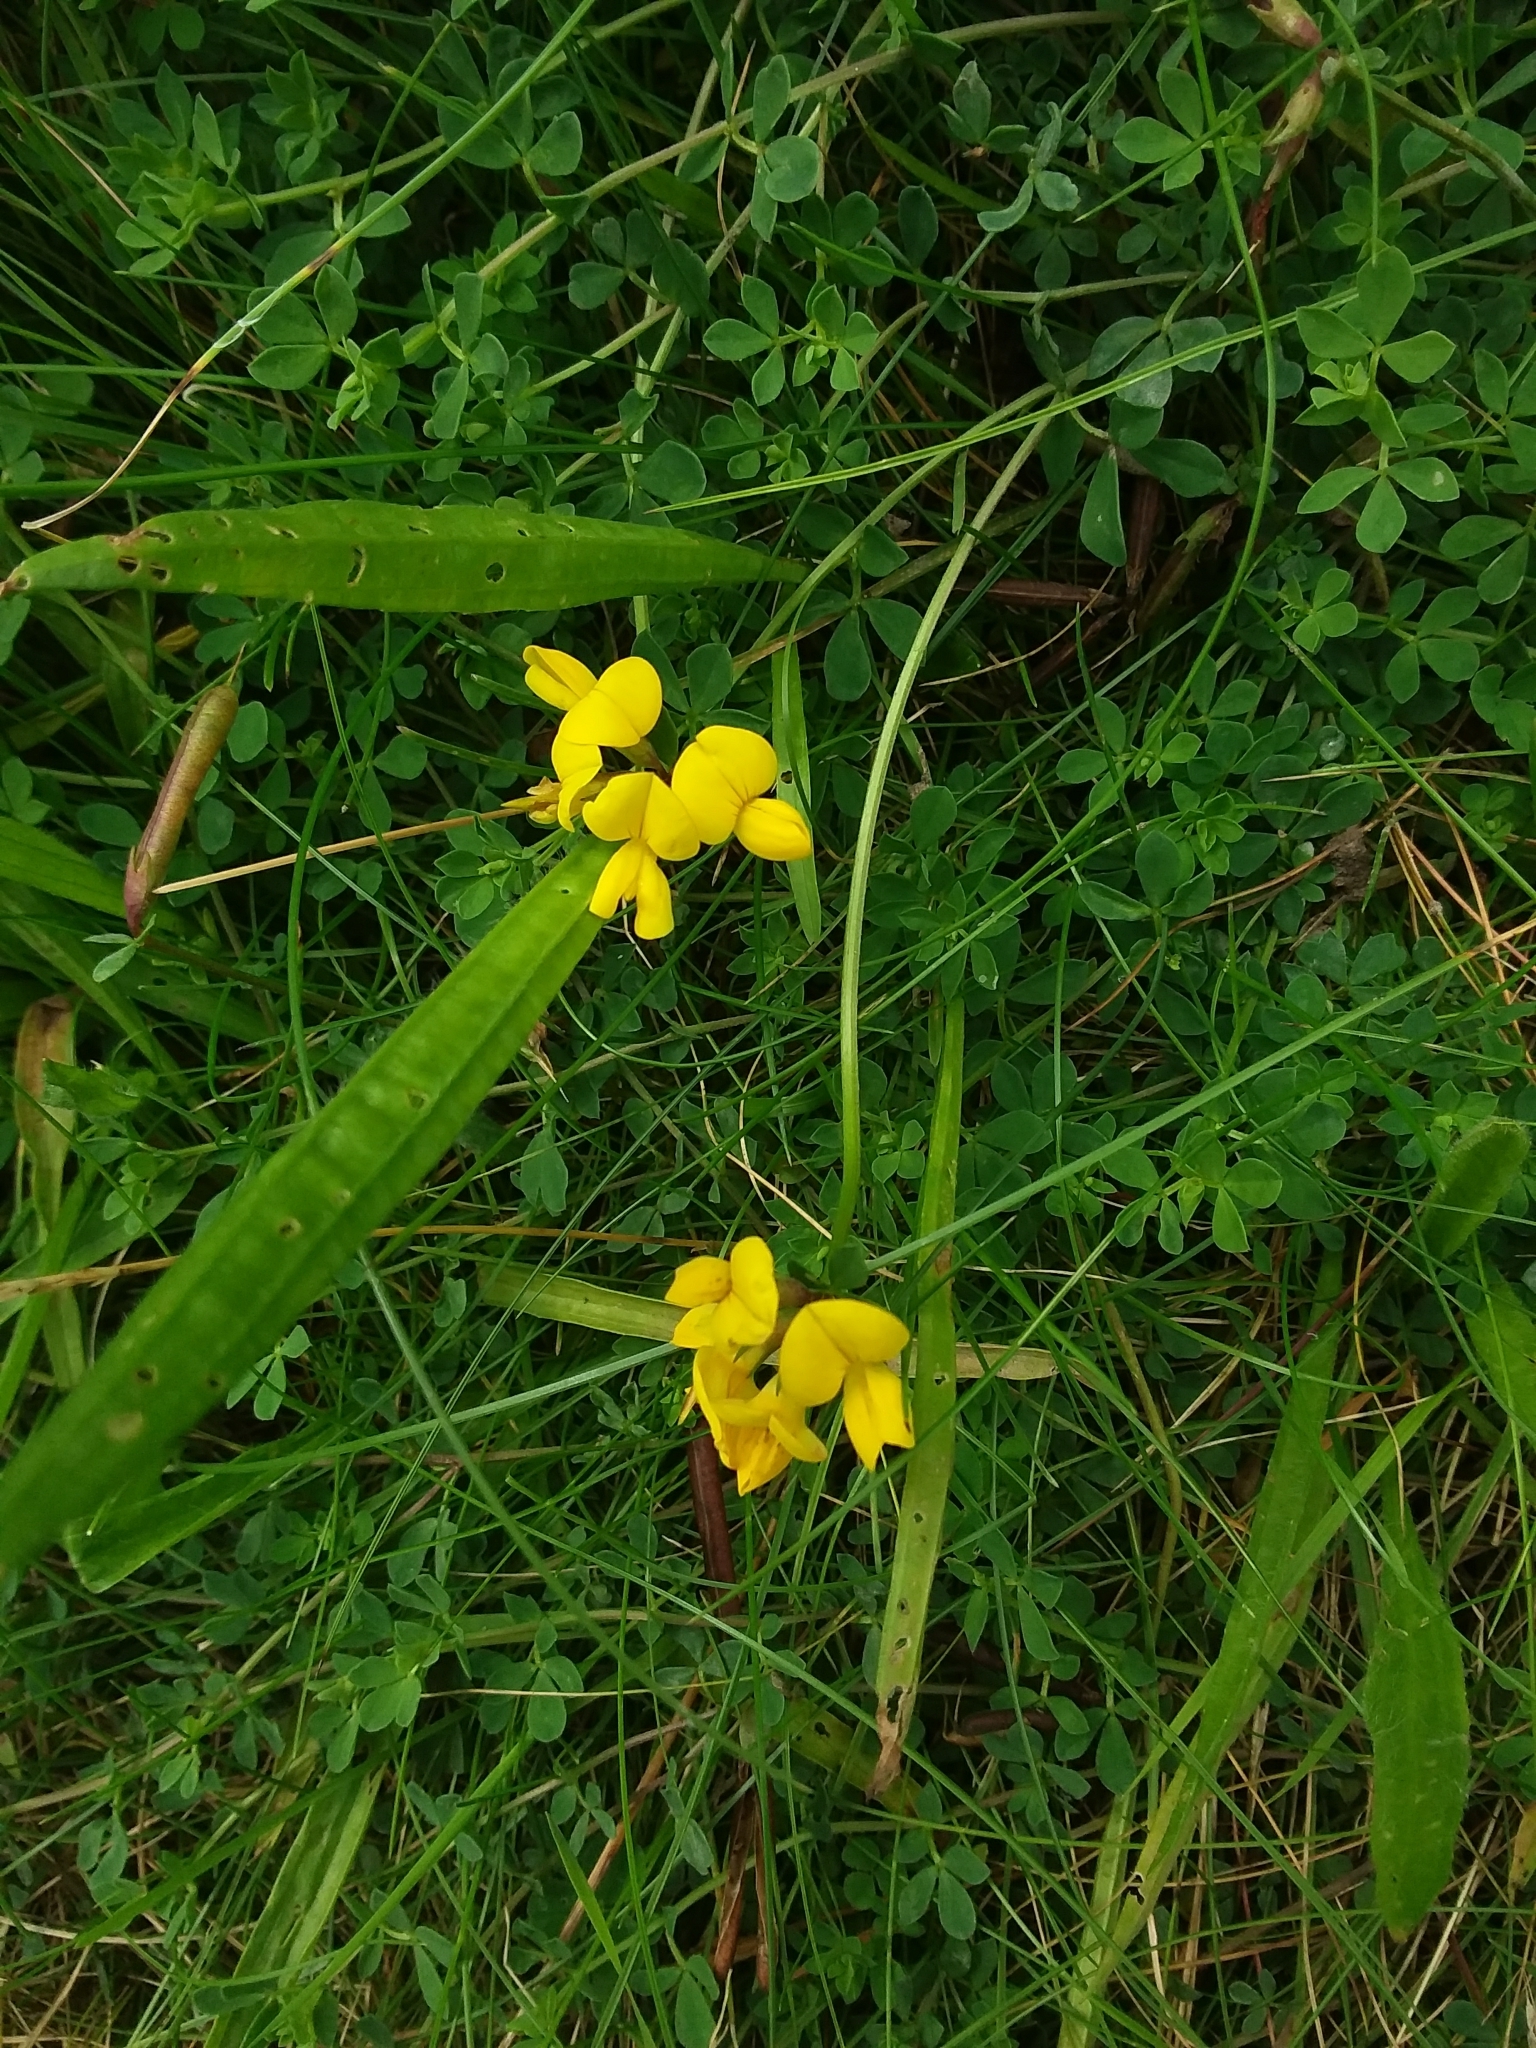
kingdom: Plantae
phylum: Tracheophyta
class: Magnoliopsida
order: Fabales
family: Fabaceae
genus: Lotus
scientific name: Lotus corniculatus
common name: Common bird's-foot-trefoil
